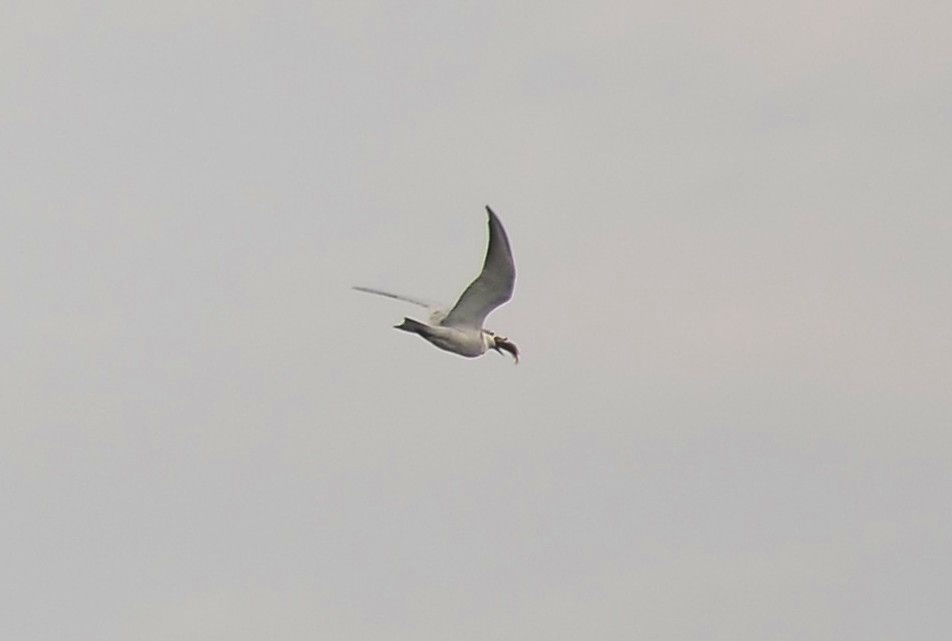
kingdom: Animalia
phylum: Chordata
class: Aves
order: Charadriiformes
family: Laridae
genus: Chlidonias
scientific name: Chlidonias hybrida
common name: Whiskered tern
